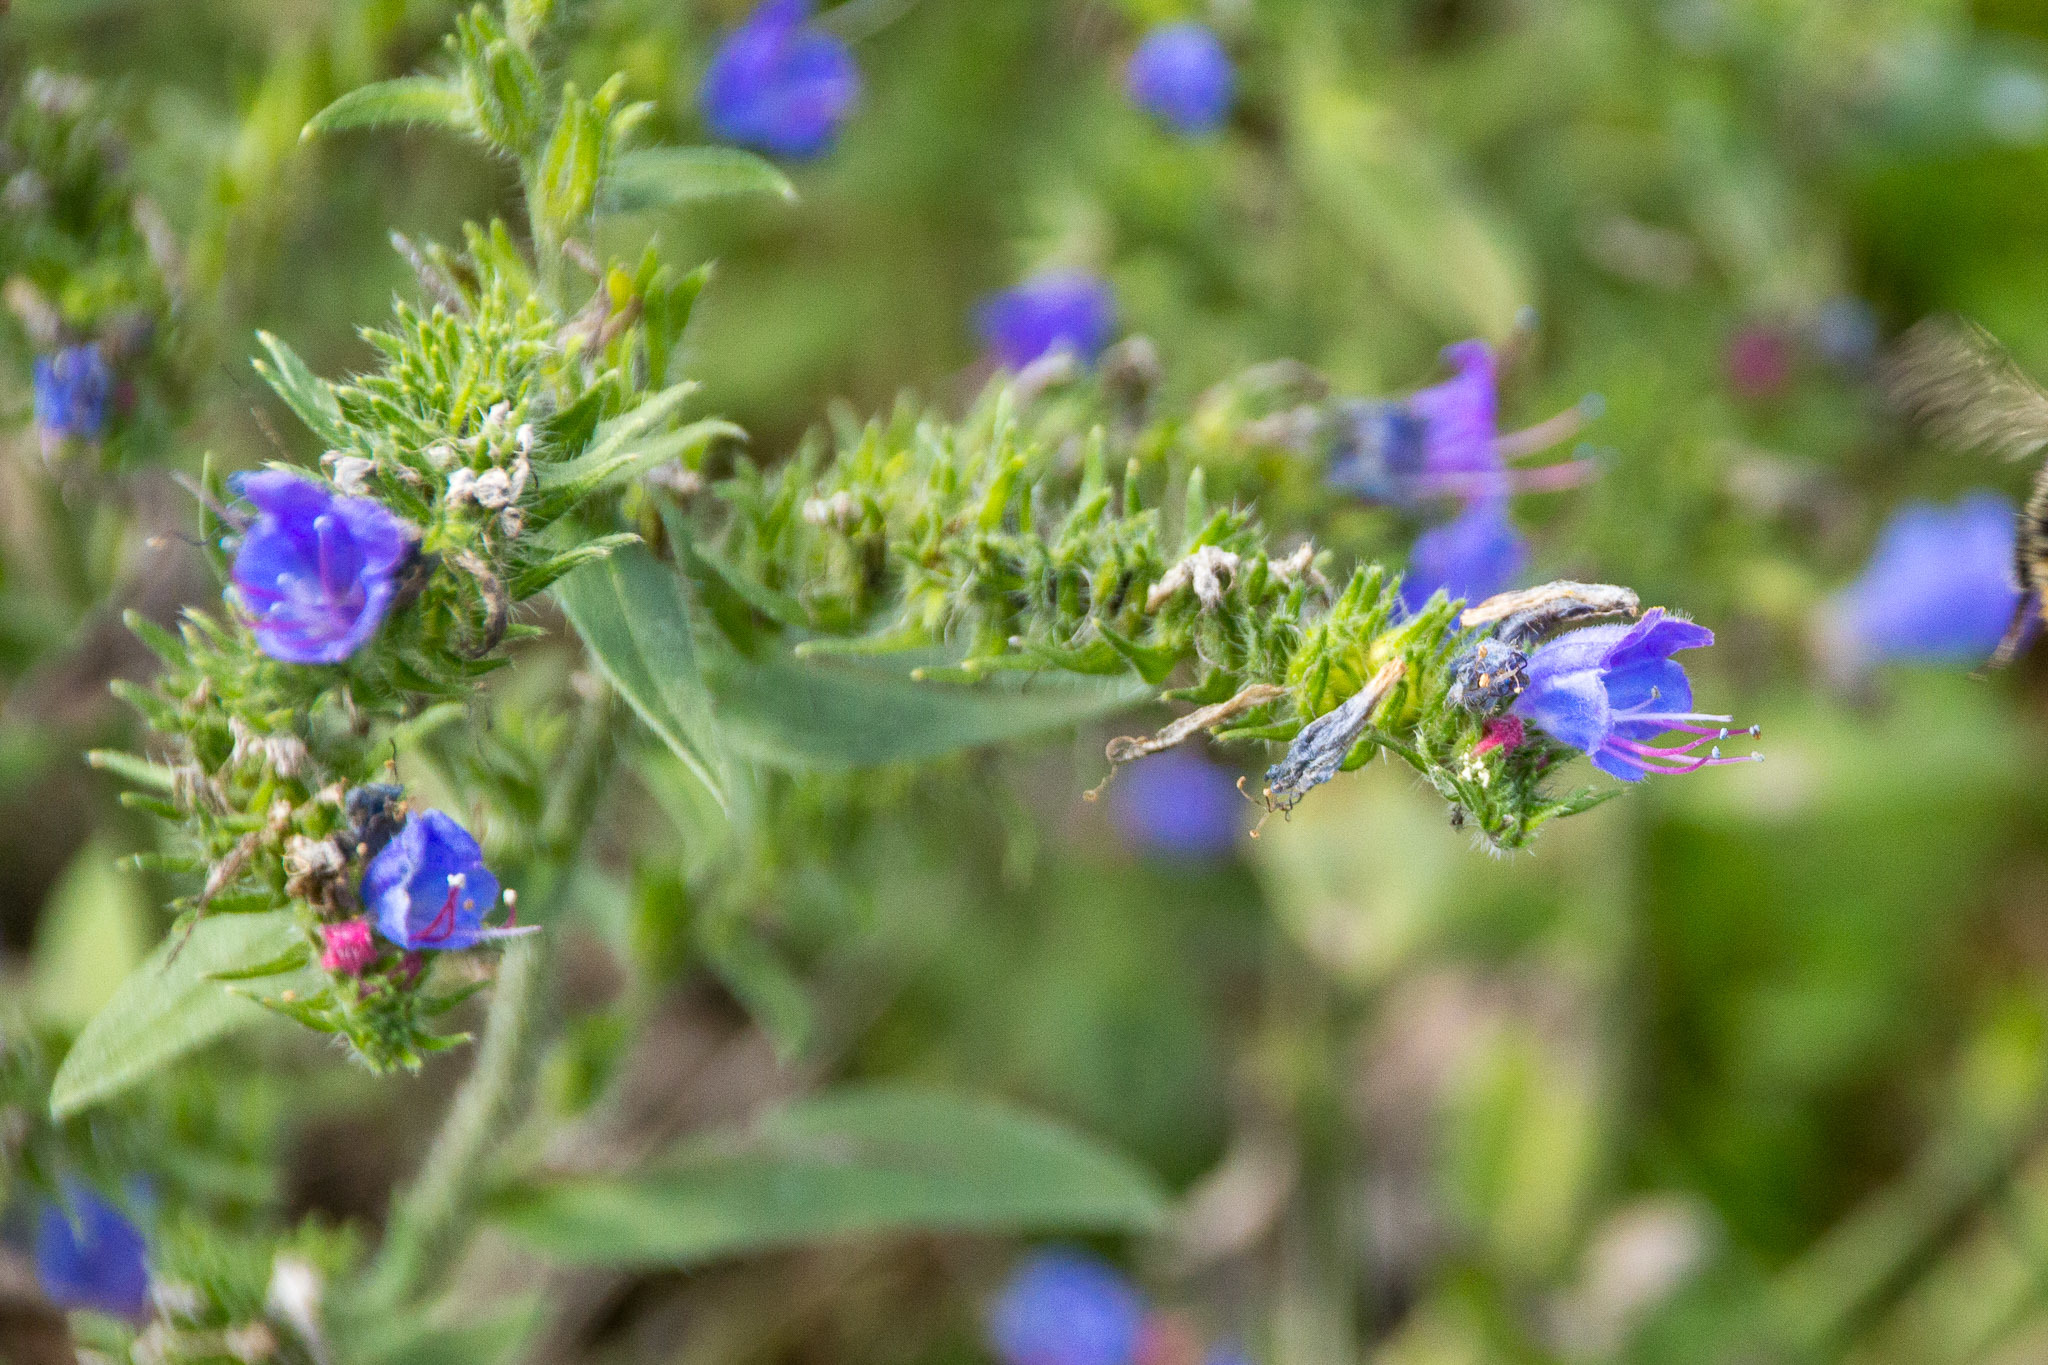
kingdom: Plantae
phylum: Tracheophyta
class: Magnoliopsida
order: Boraginales
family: Boraginaceae
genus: Echium
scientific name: Echium vulgare
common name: Common viper's bugloss
